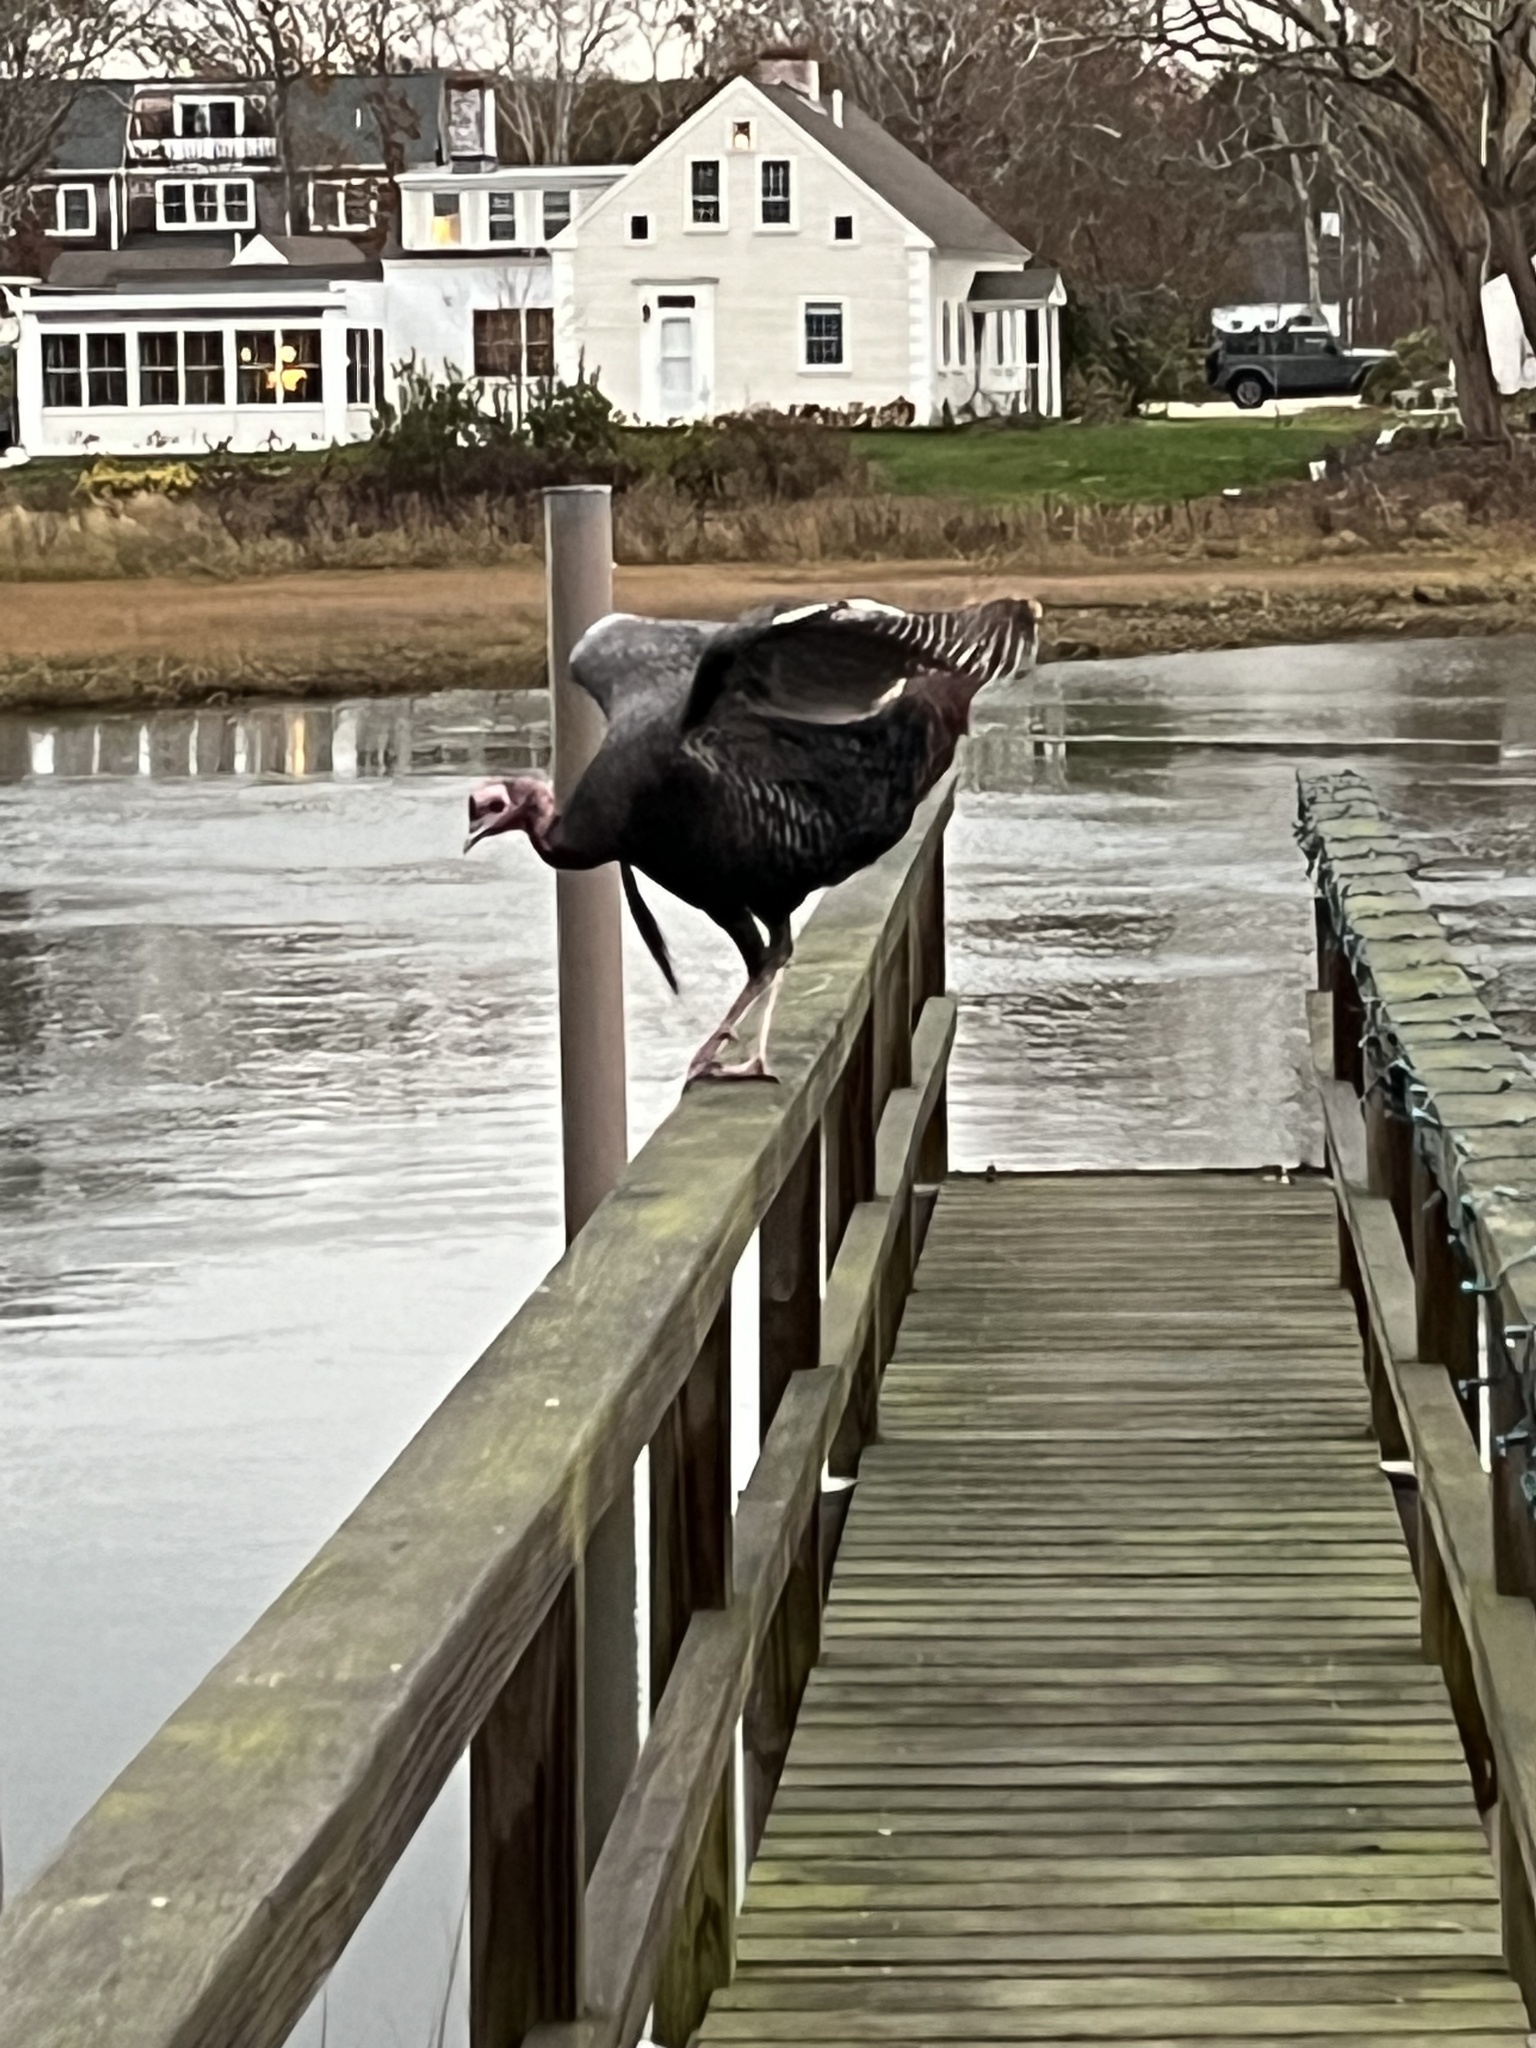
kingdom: Animalia
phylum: Chordata
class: Aves
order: Galliformes
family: Phasianidae
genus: Meleagris
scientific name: Meleagris gallopavo
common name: Wild turkey
